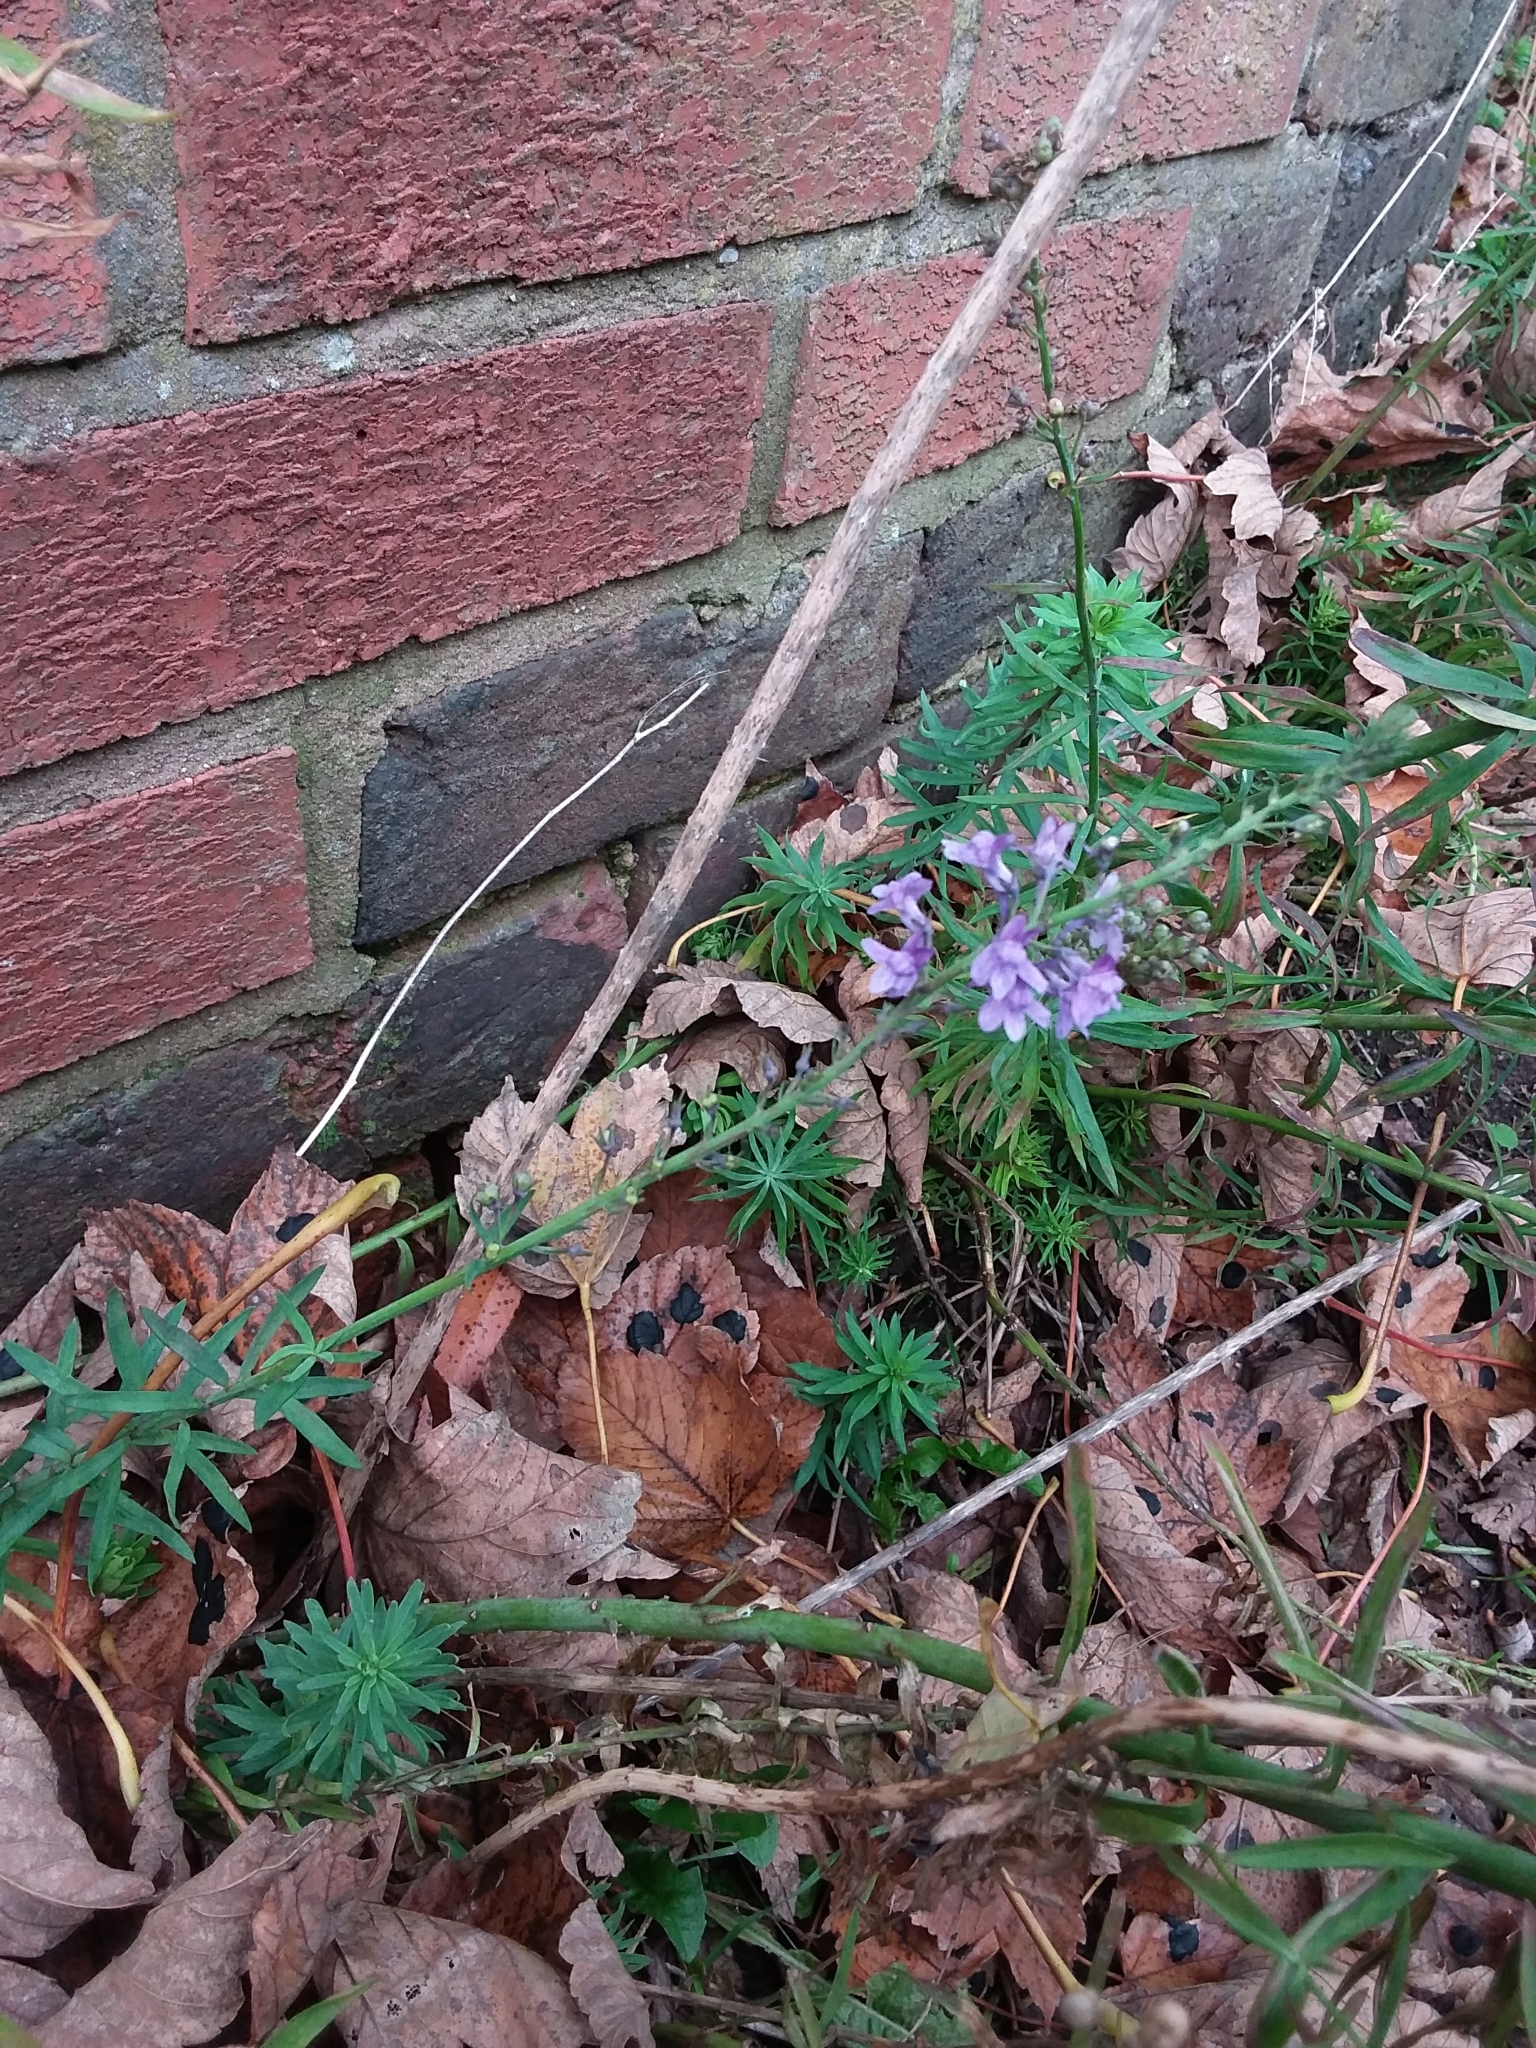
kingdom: Plantae
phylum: Tracheophyta
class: Magnoliopsida
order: Lamiales
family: Plantaginaceae
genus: Linaria
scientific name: Linaria purpurea
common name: Purple toadflax
